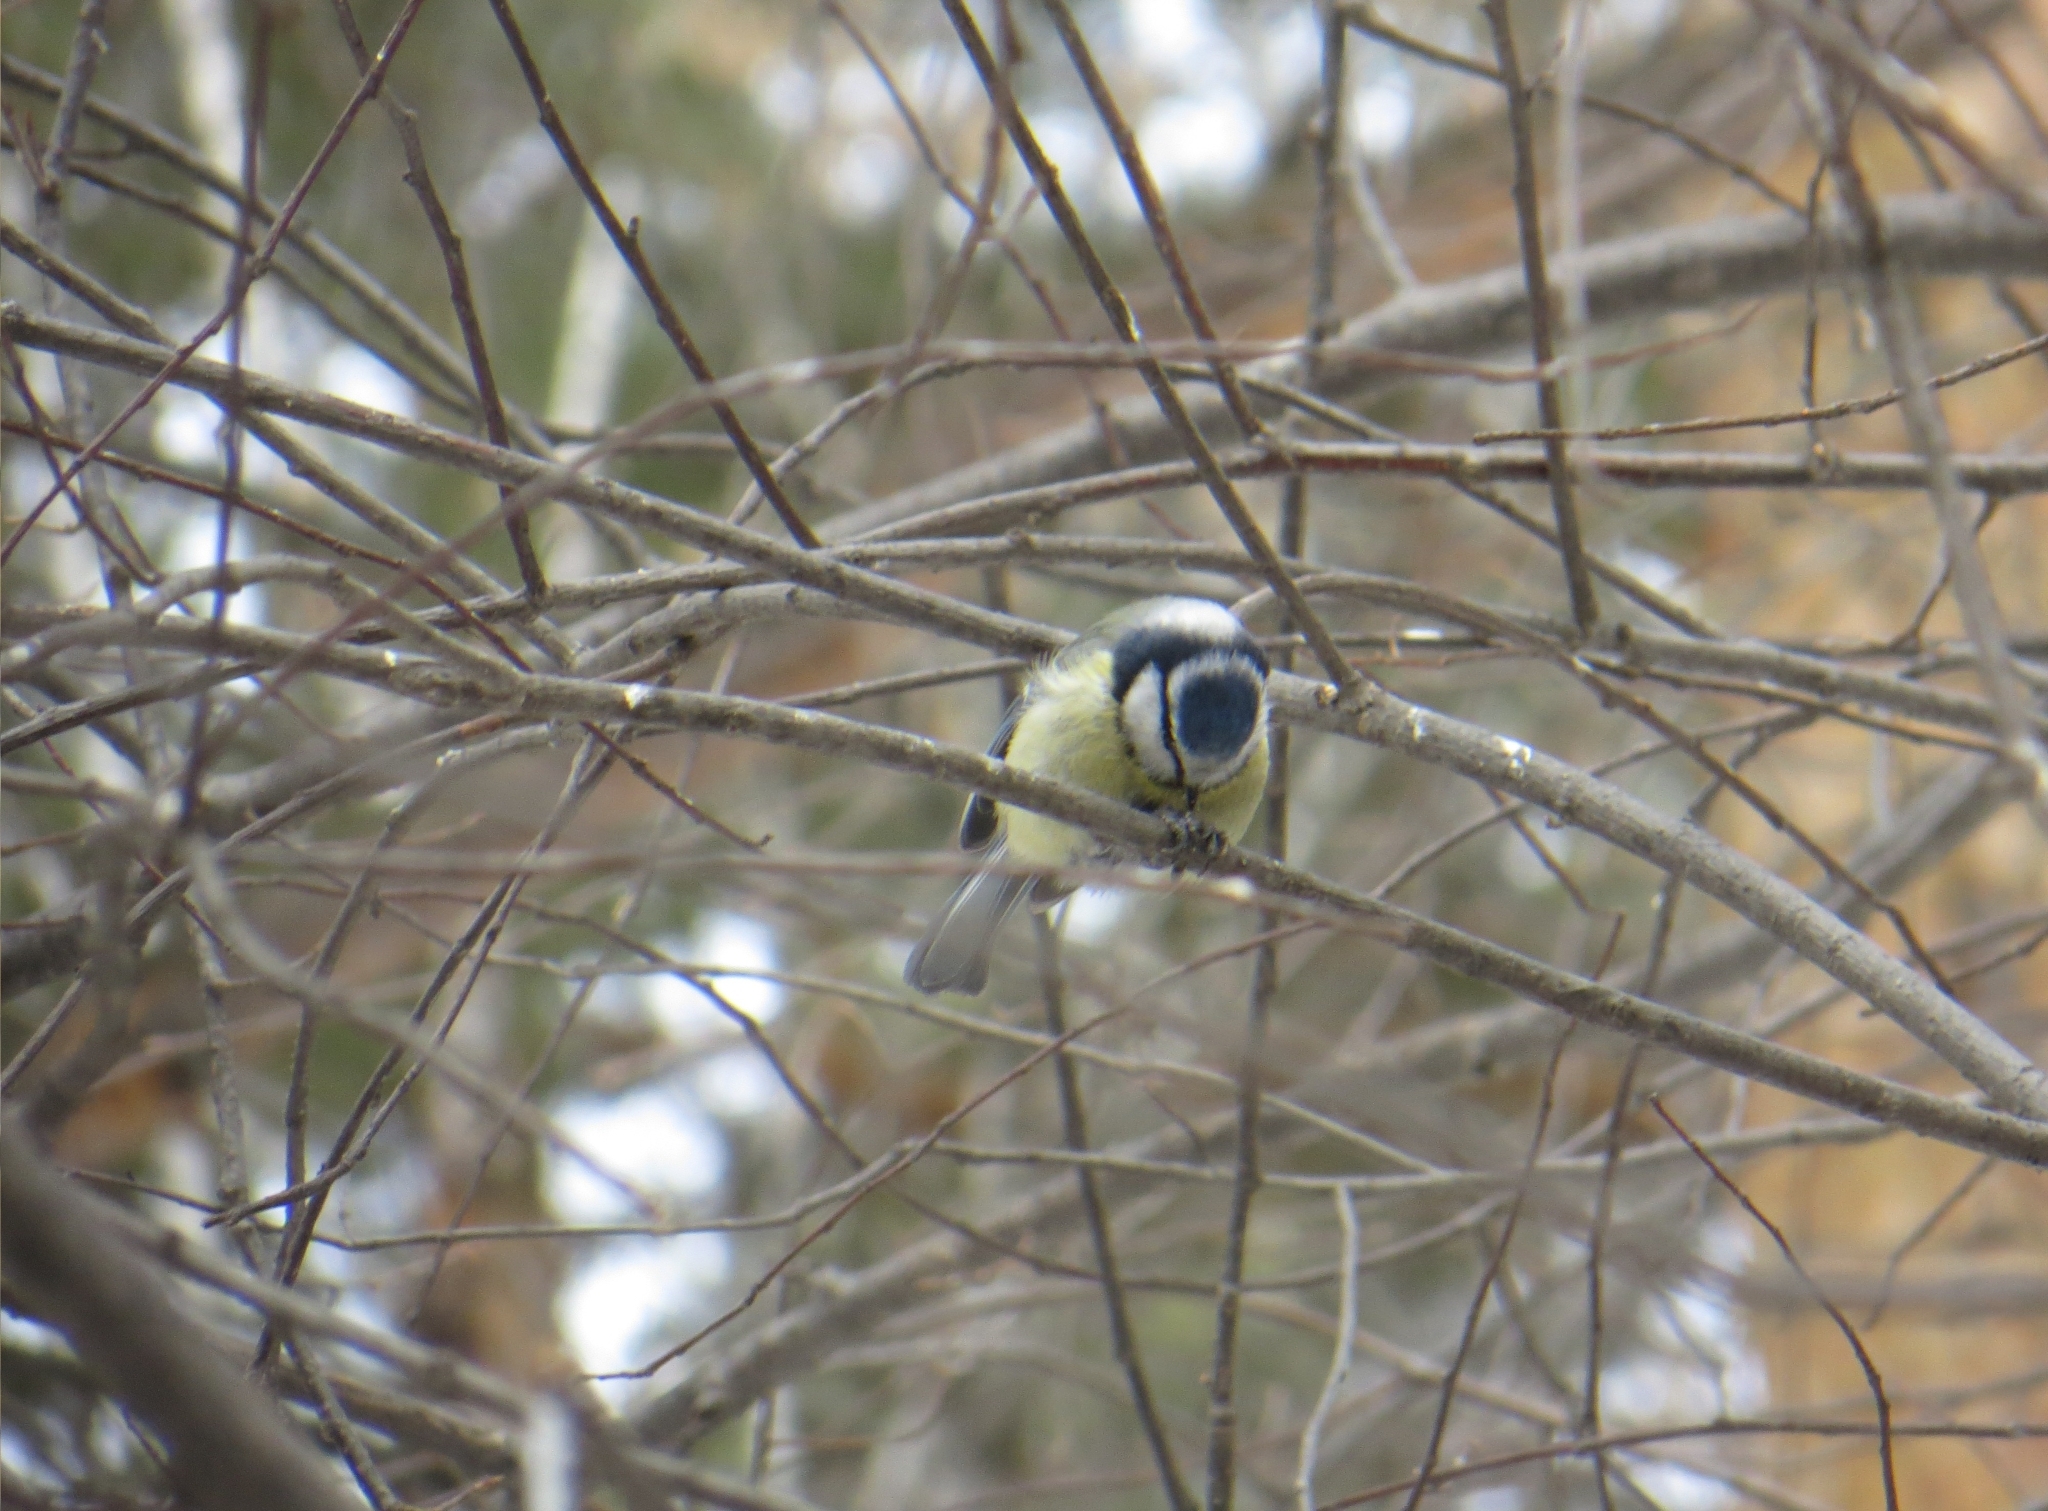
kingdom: Animalia
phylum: Chordata
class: Aves
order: Passeriformes
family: Paridae
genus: Cyanistes
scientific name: Cyanistes caeruleus
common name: Eurasian blue tit
